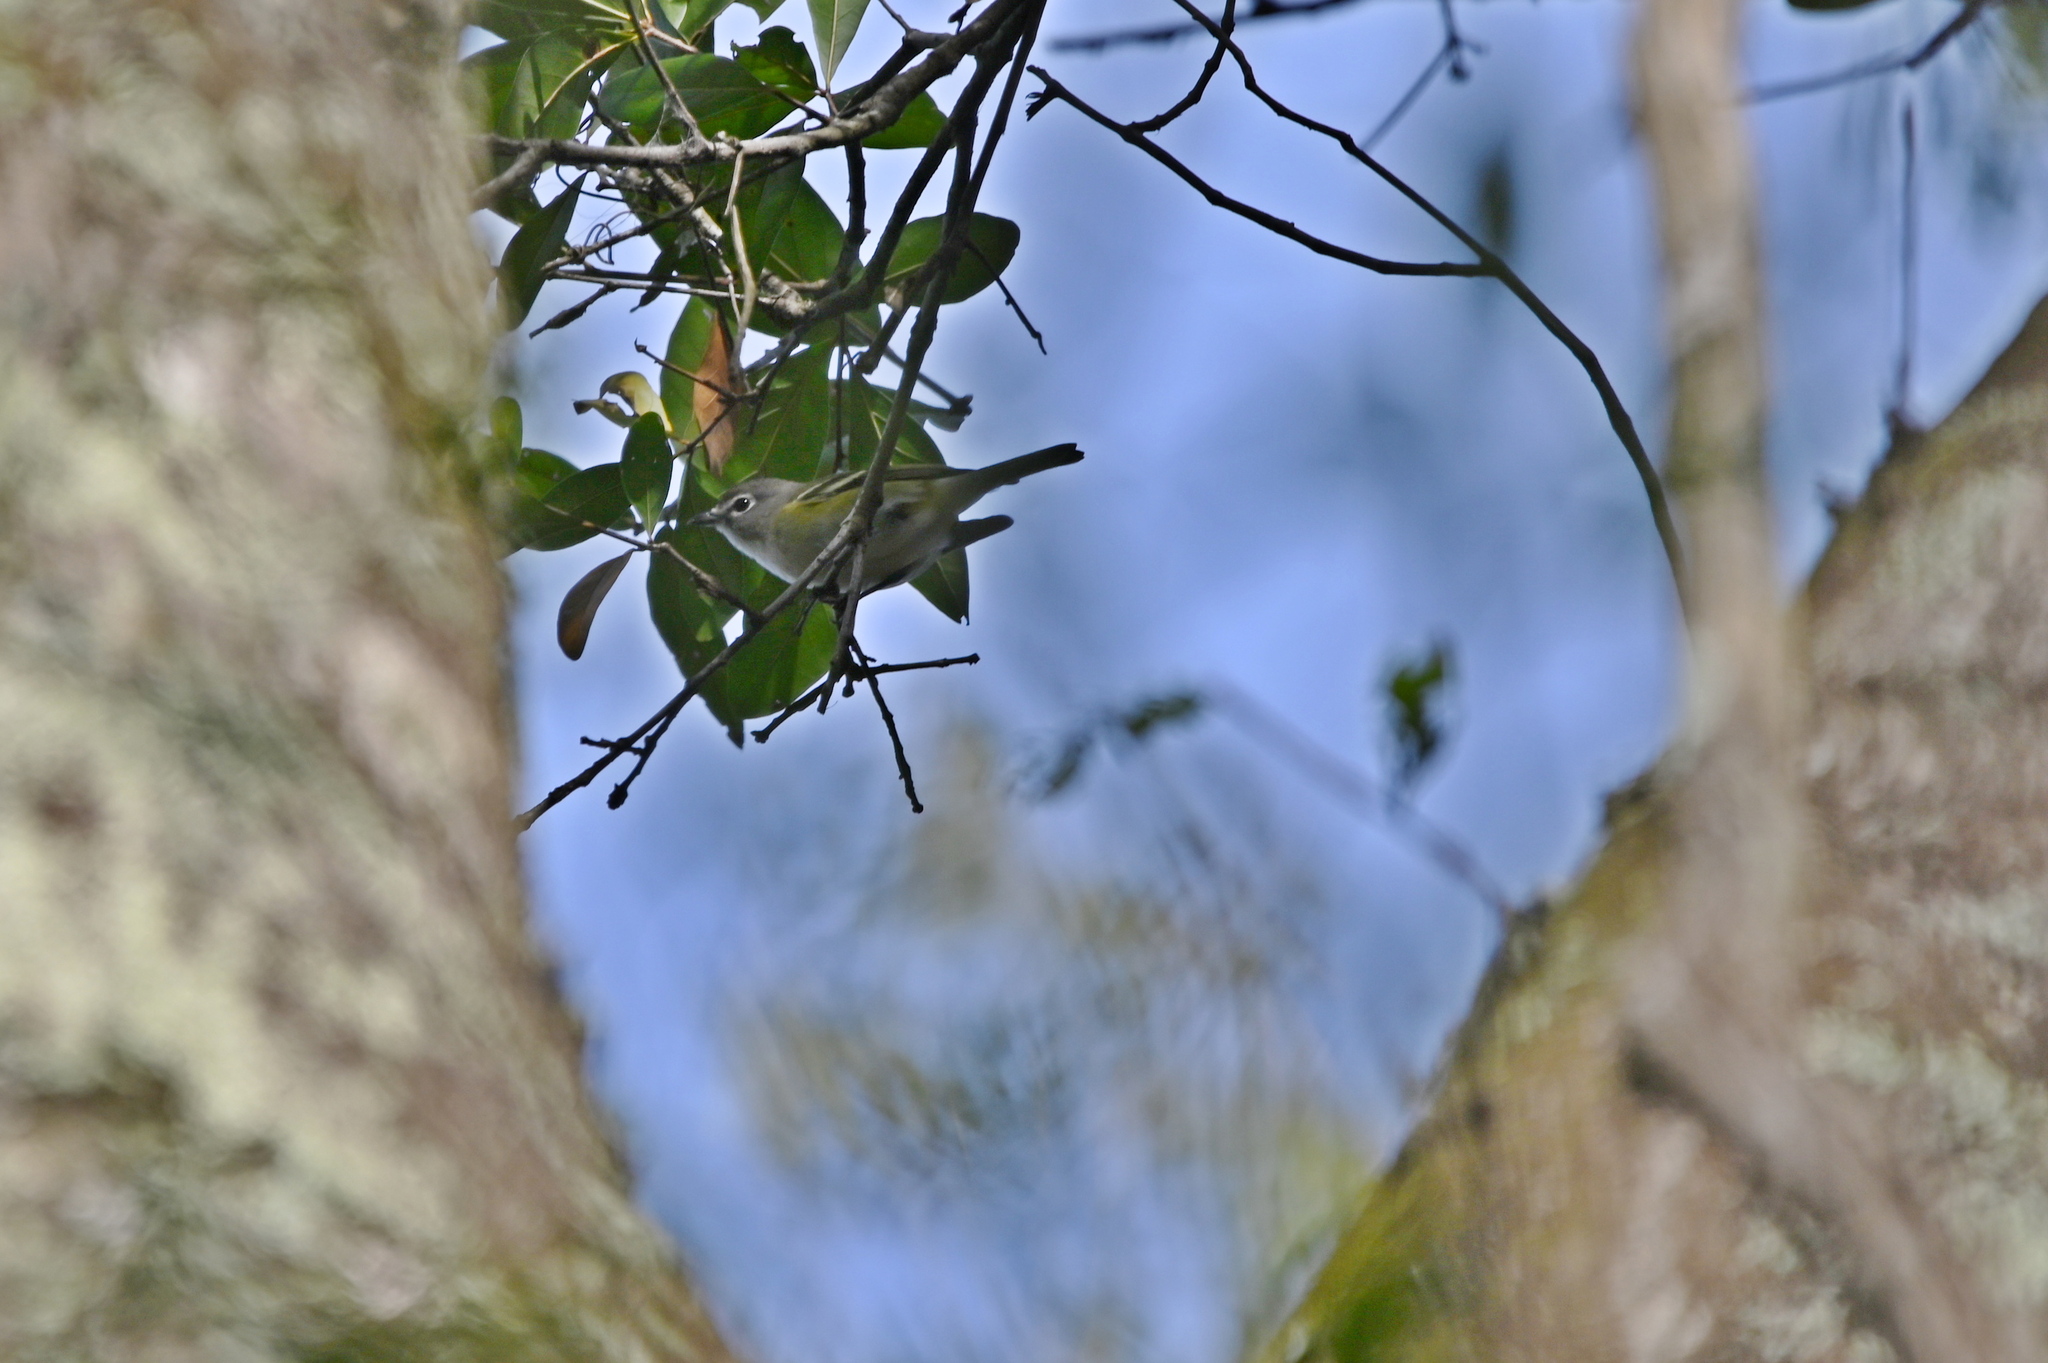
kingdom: Animalia
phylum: Chordata
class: Aves
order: Passeriformes
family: Vireonidae
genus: Vireo
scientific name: Vireo solitarius
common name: Blue-headed vireo
